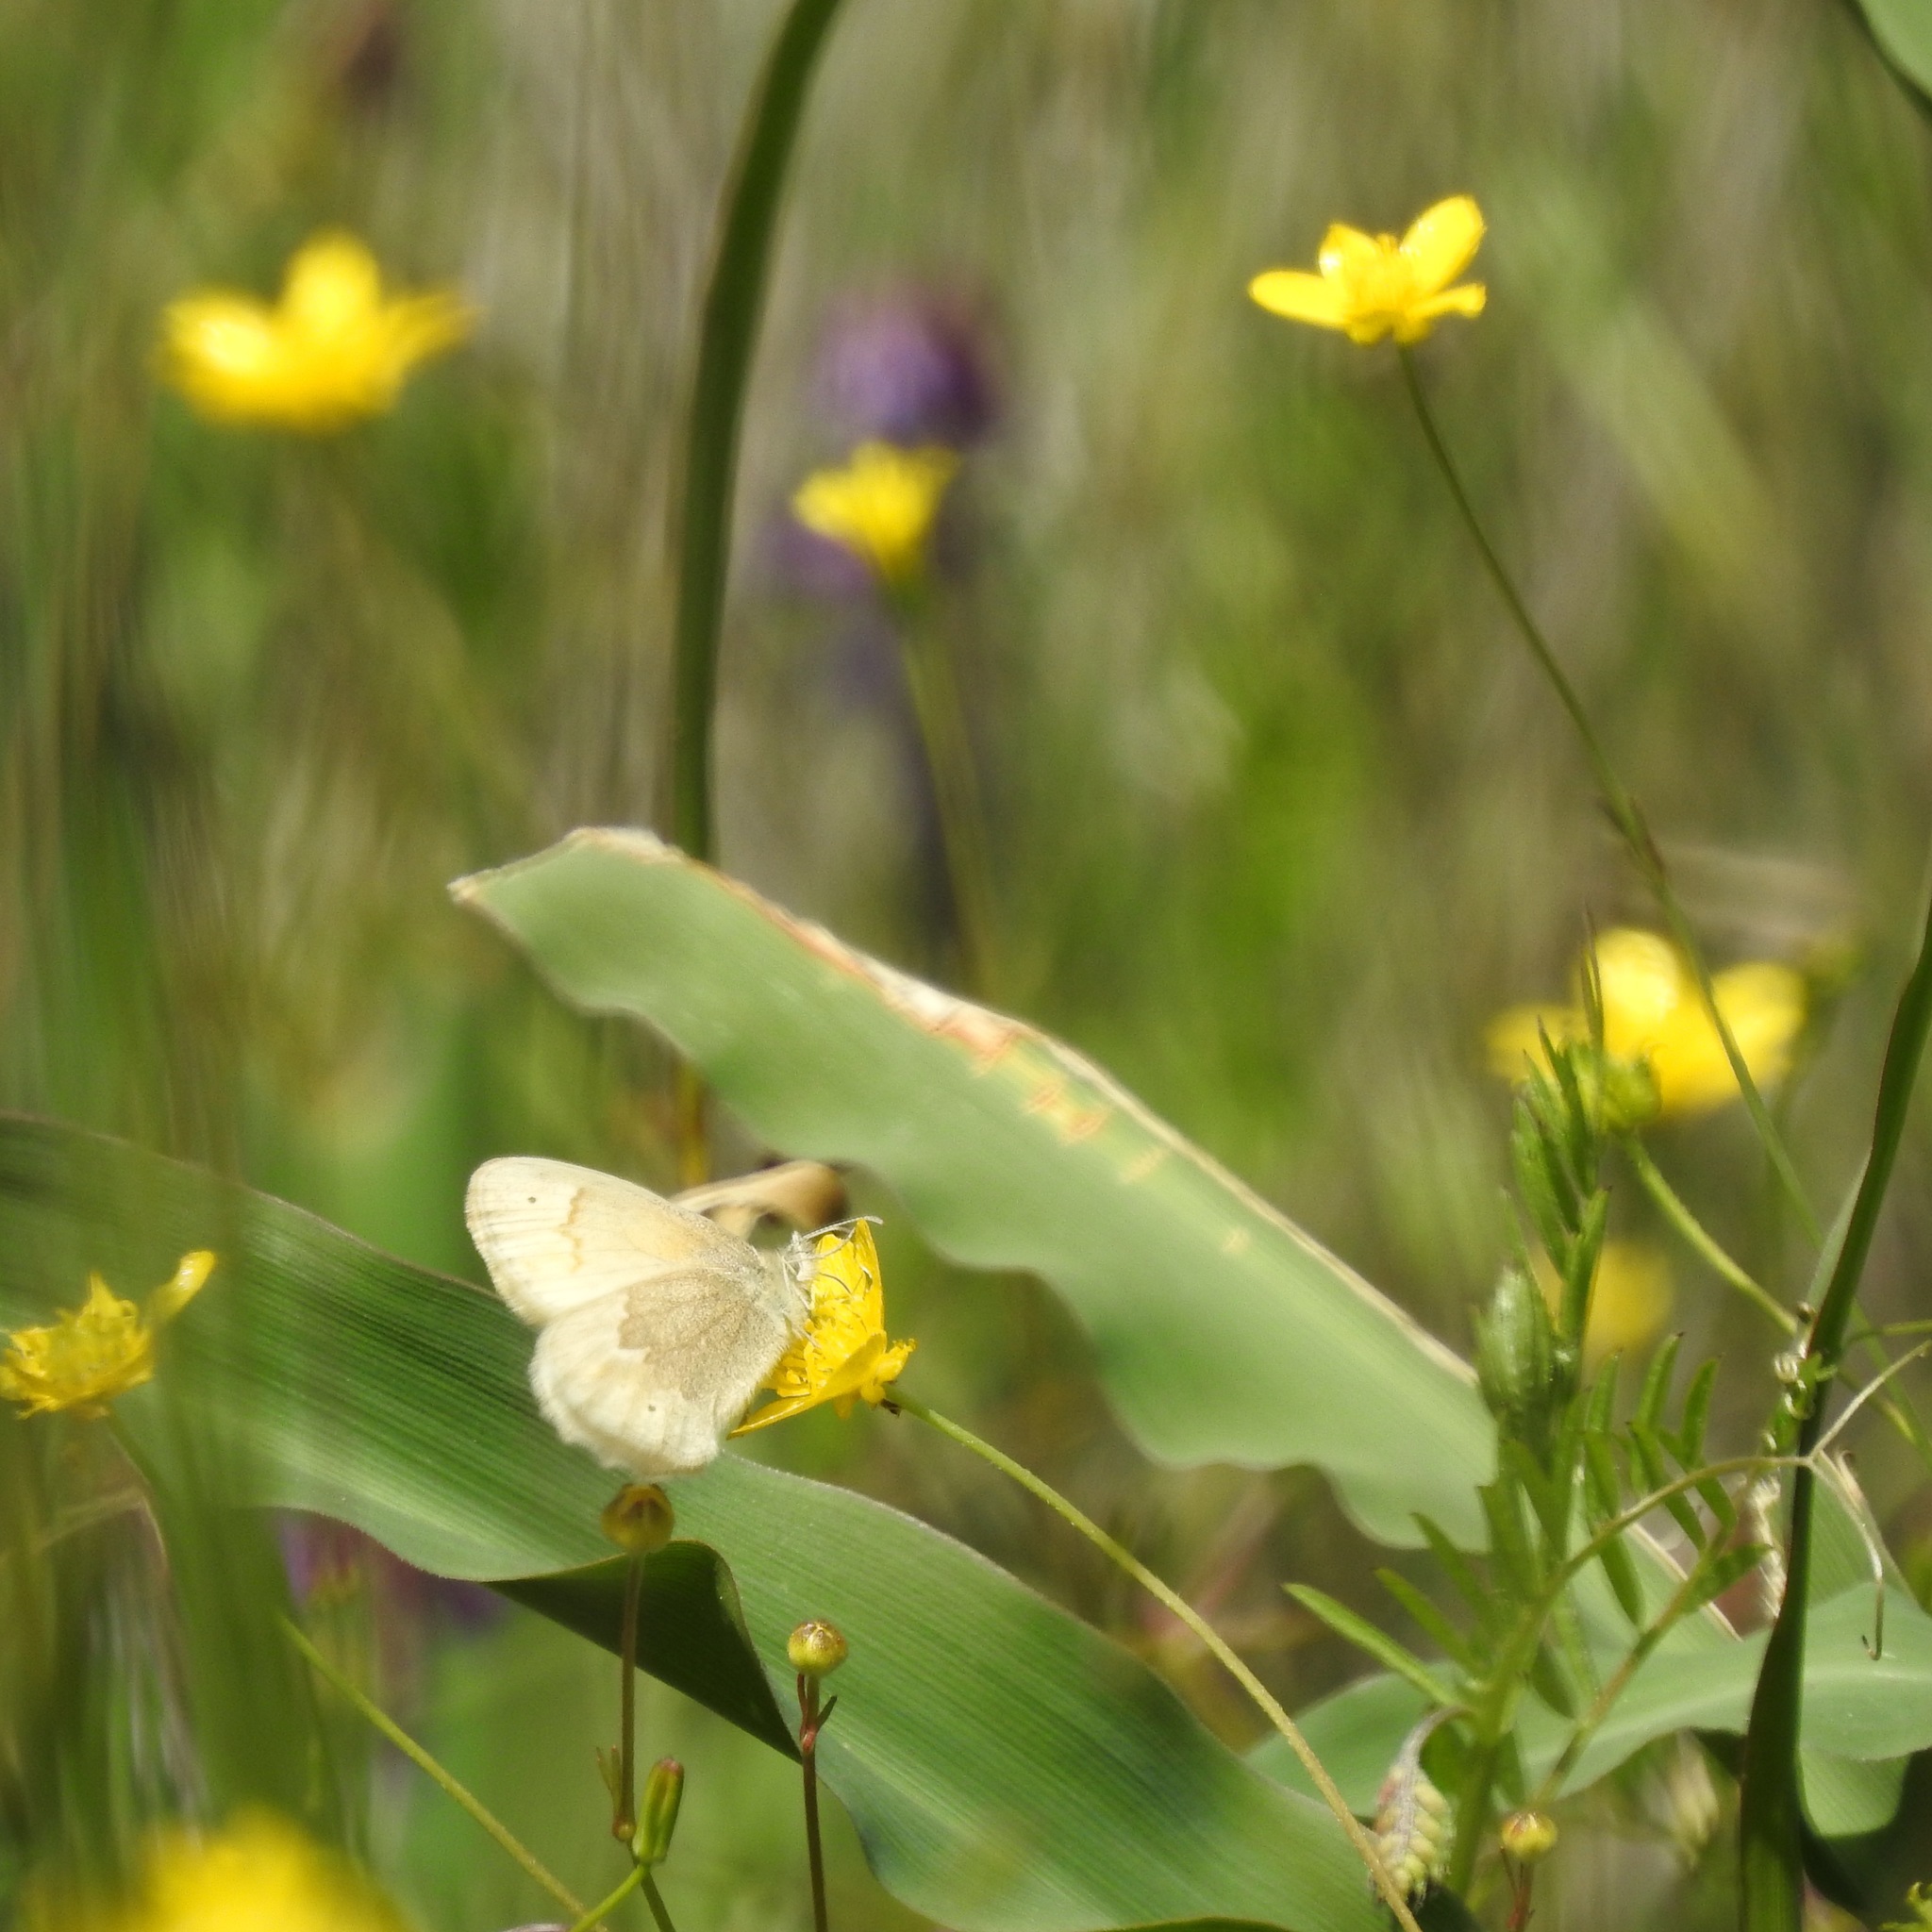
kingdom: Plantae
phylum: Tracheophyta
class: Magnoliopsida
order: Ranunculales
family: Ranunculaceae
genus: Ranunculus
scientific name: Ranunculus occidentalis
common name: Western buttercup
